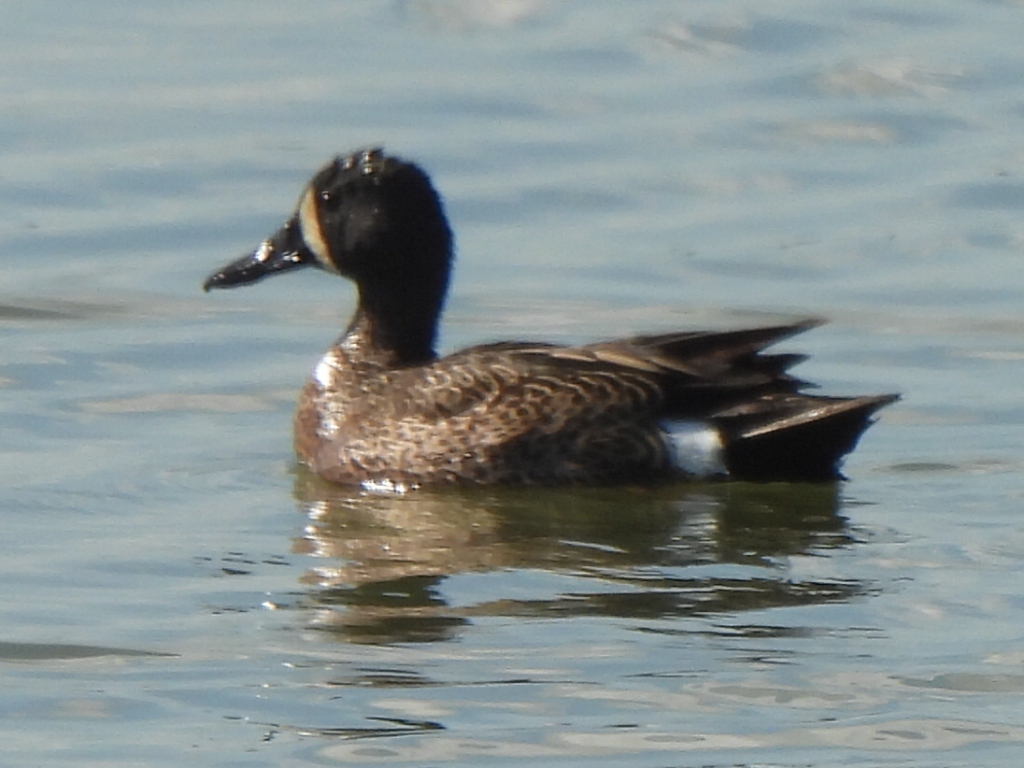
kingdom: Animalia
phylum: Chordata
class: Aves
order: Anseriformes
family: Anatidae
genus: Spatula
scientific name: Spatula discors
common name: Blue-winged teal
